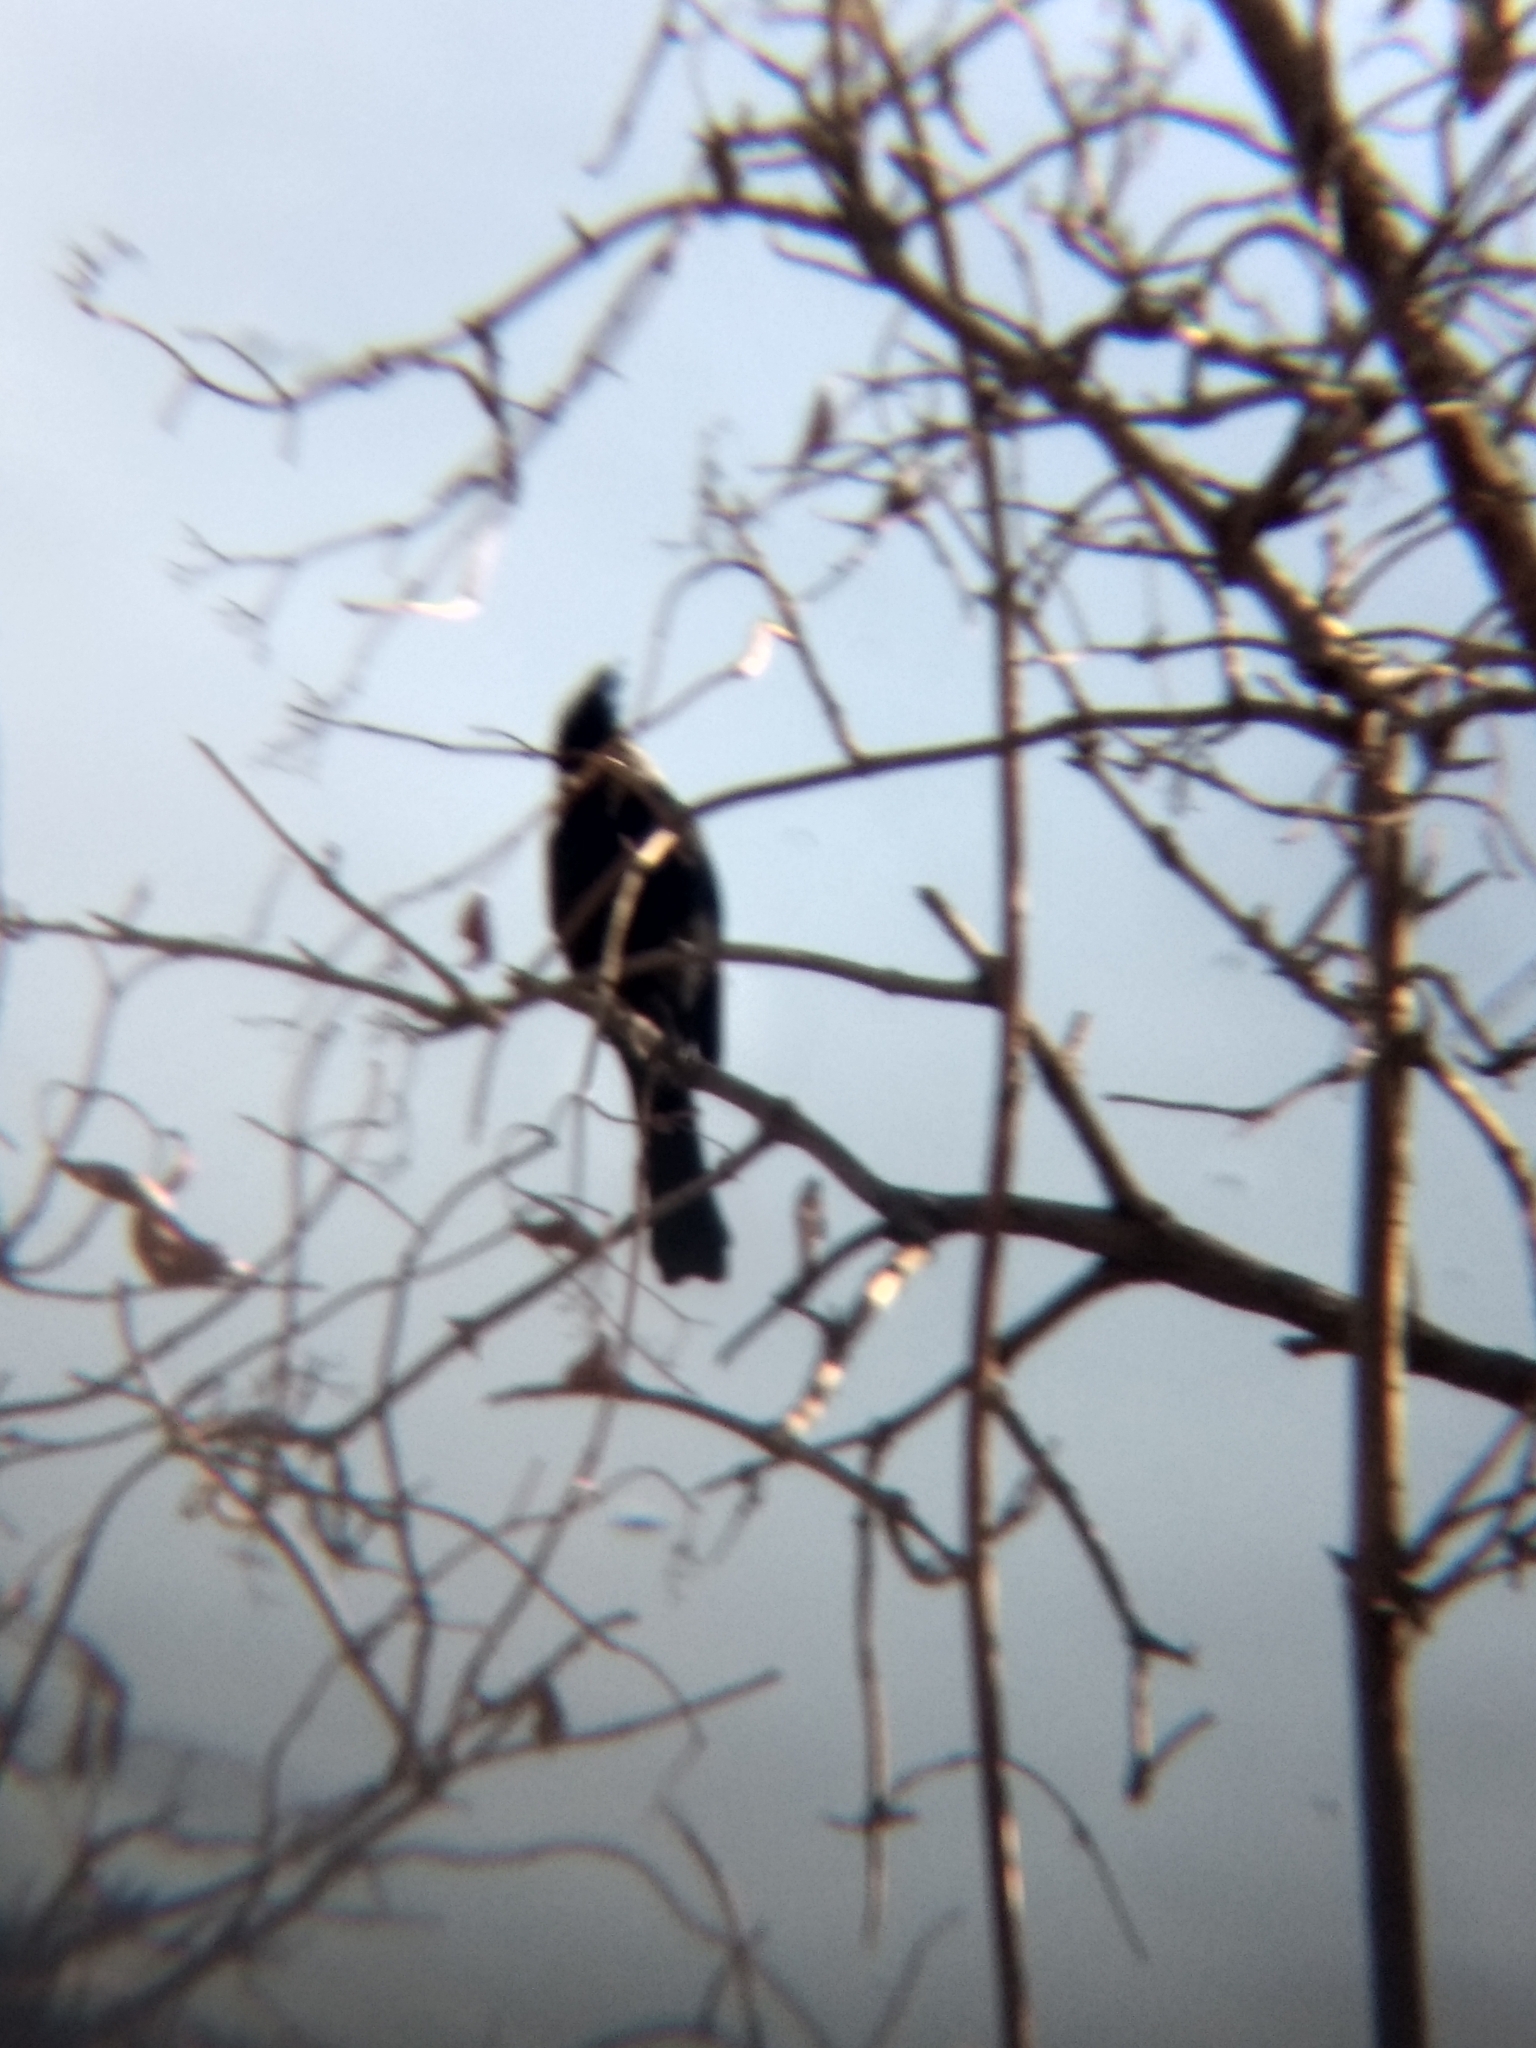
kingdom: Animalia
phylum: Chordata
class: Aves
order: Passeriformes
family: Ptilogonatidae
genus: Phainopepla
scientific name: Phainopepla nitens
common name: Phainopepla
